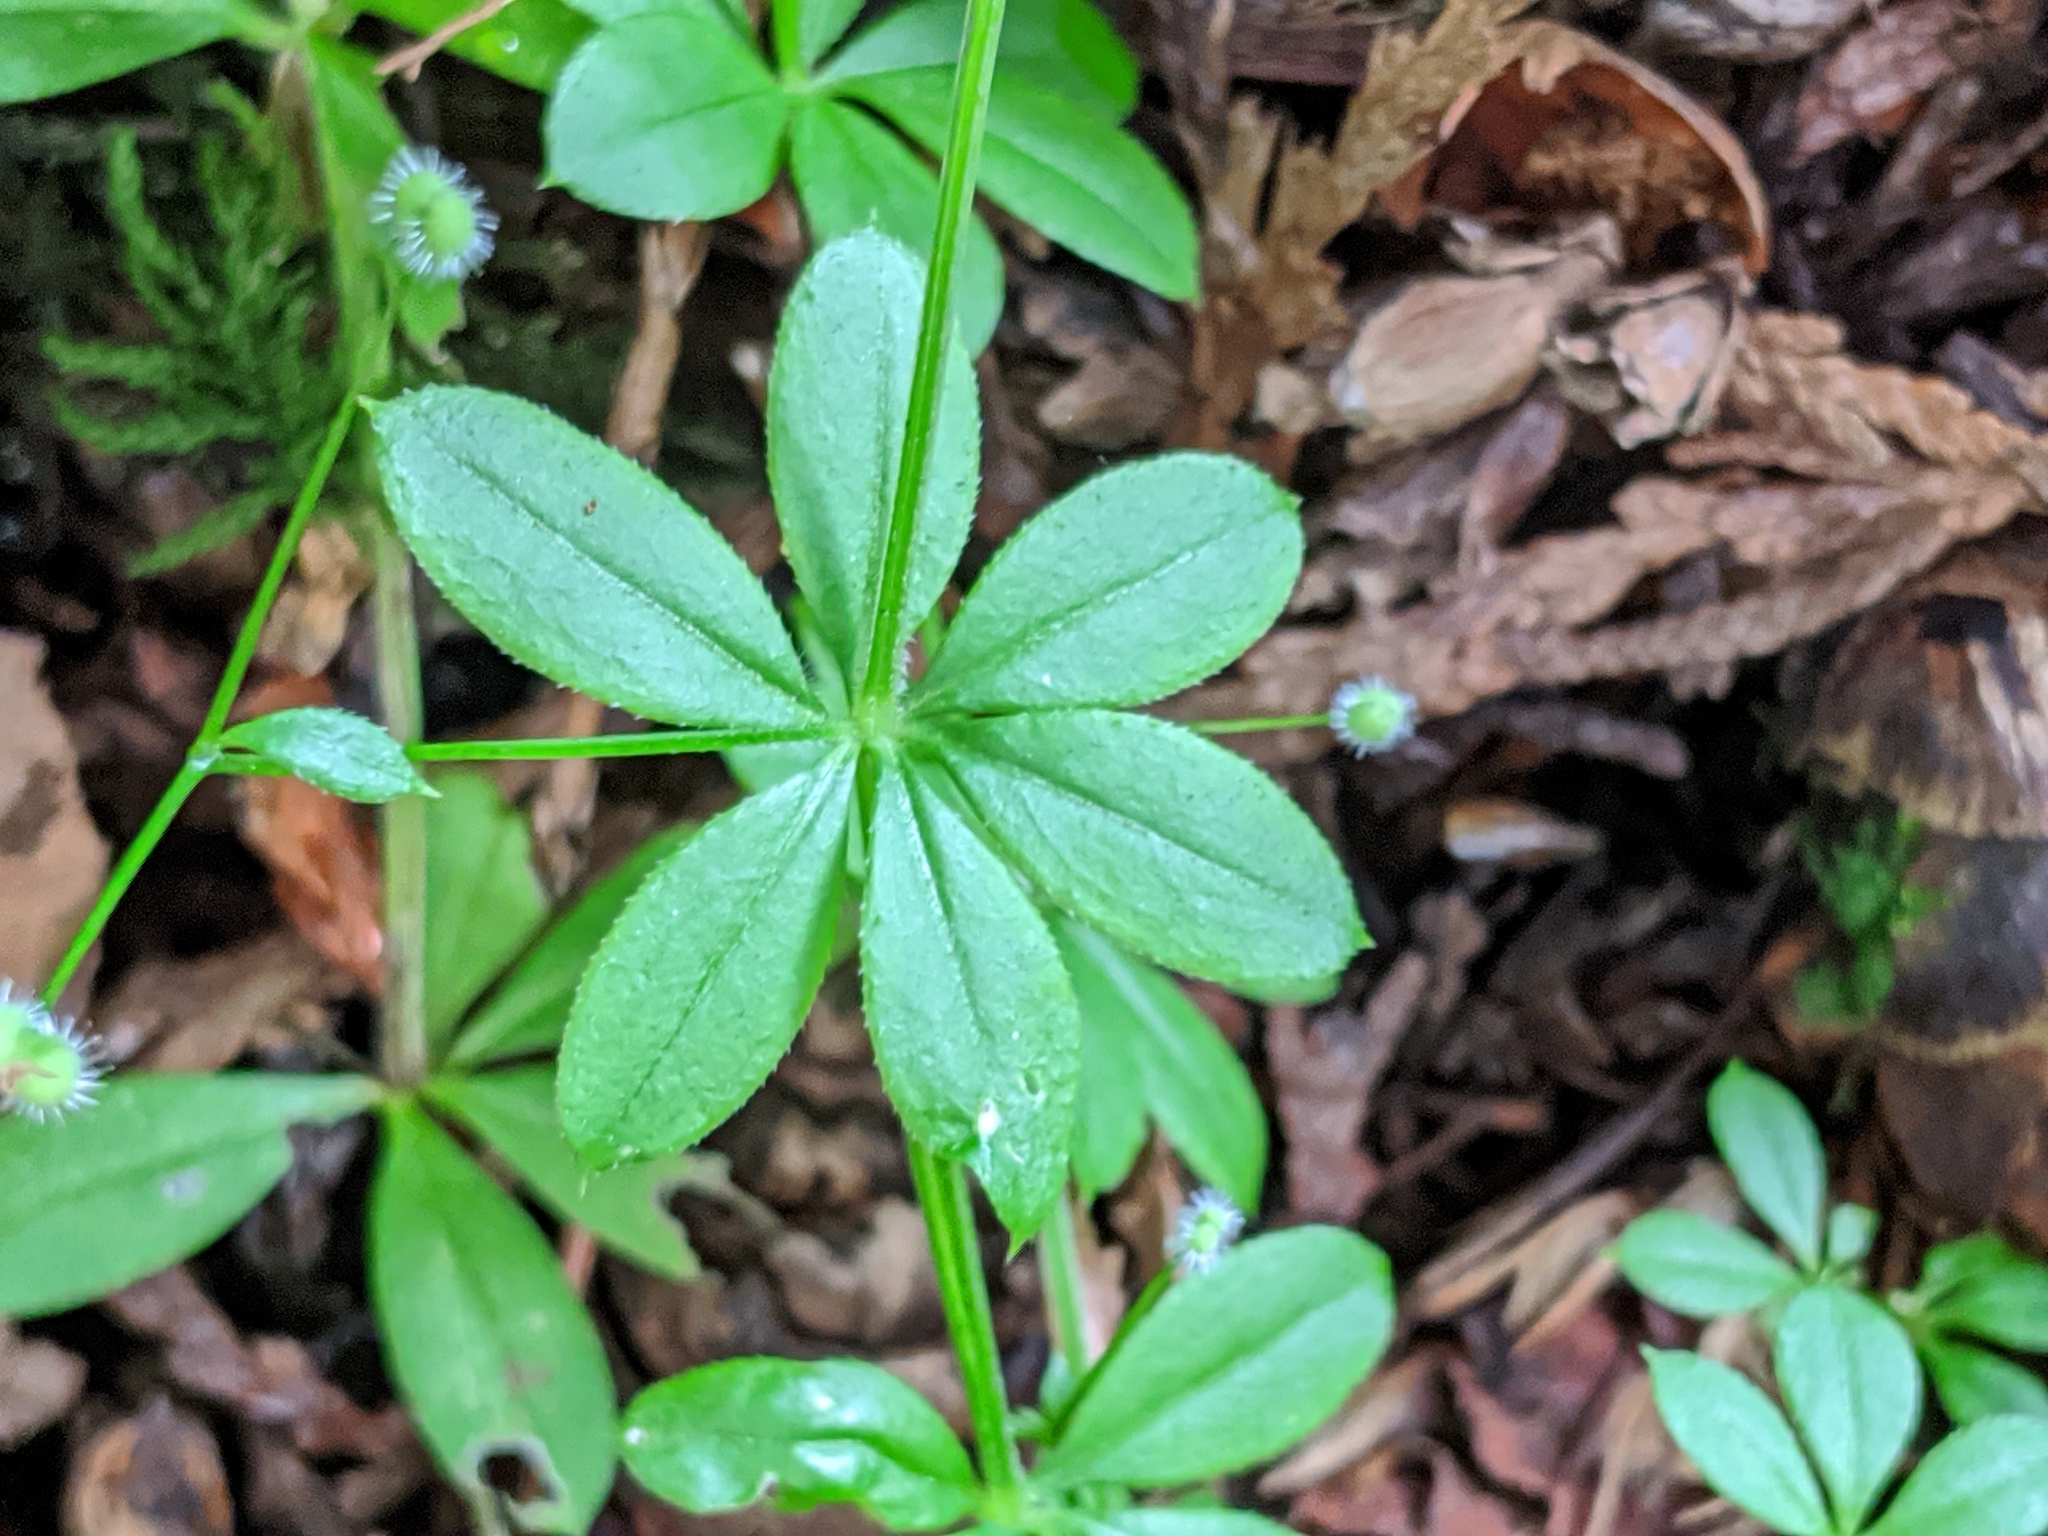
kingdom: Plantae
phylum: Tracheophyta
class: Magnoliopsida
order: Gentianales
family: Rubiaceae
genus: Galium
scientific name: Galium triflorum
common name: Fragrant bedstraw
